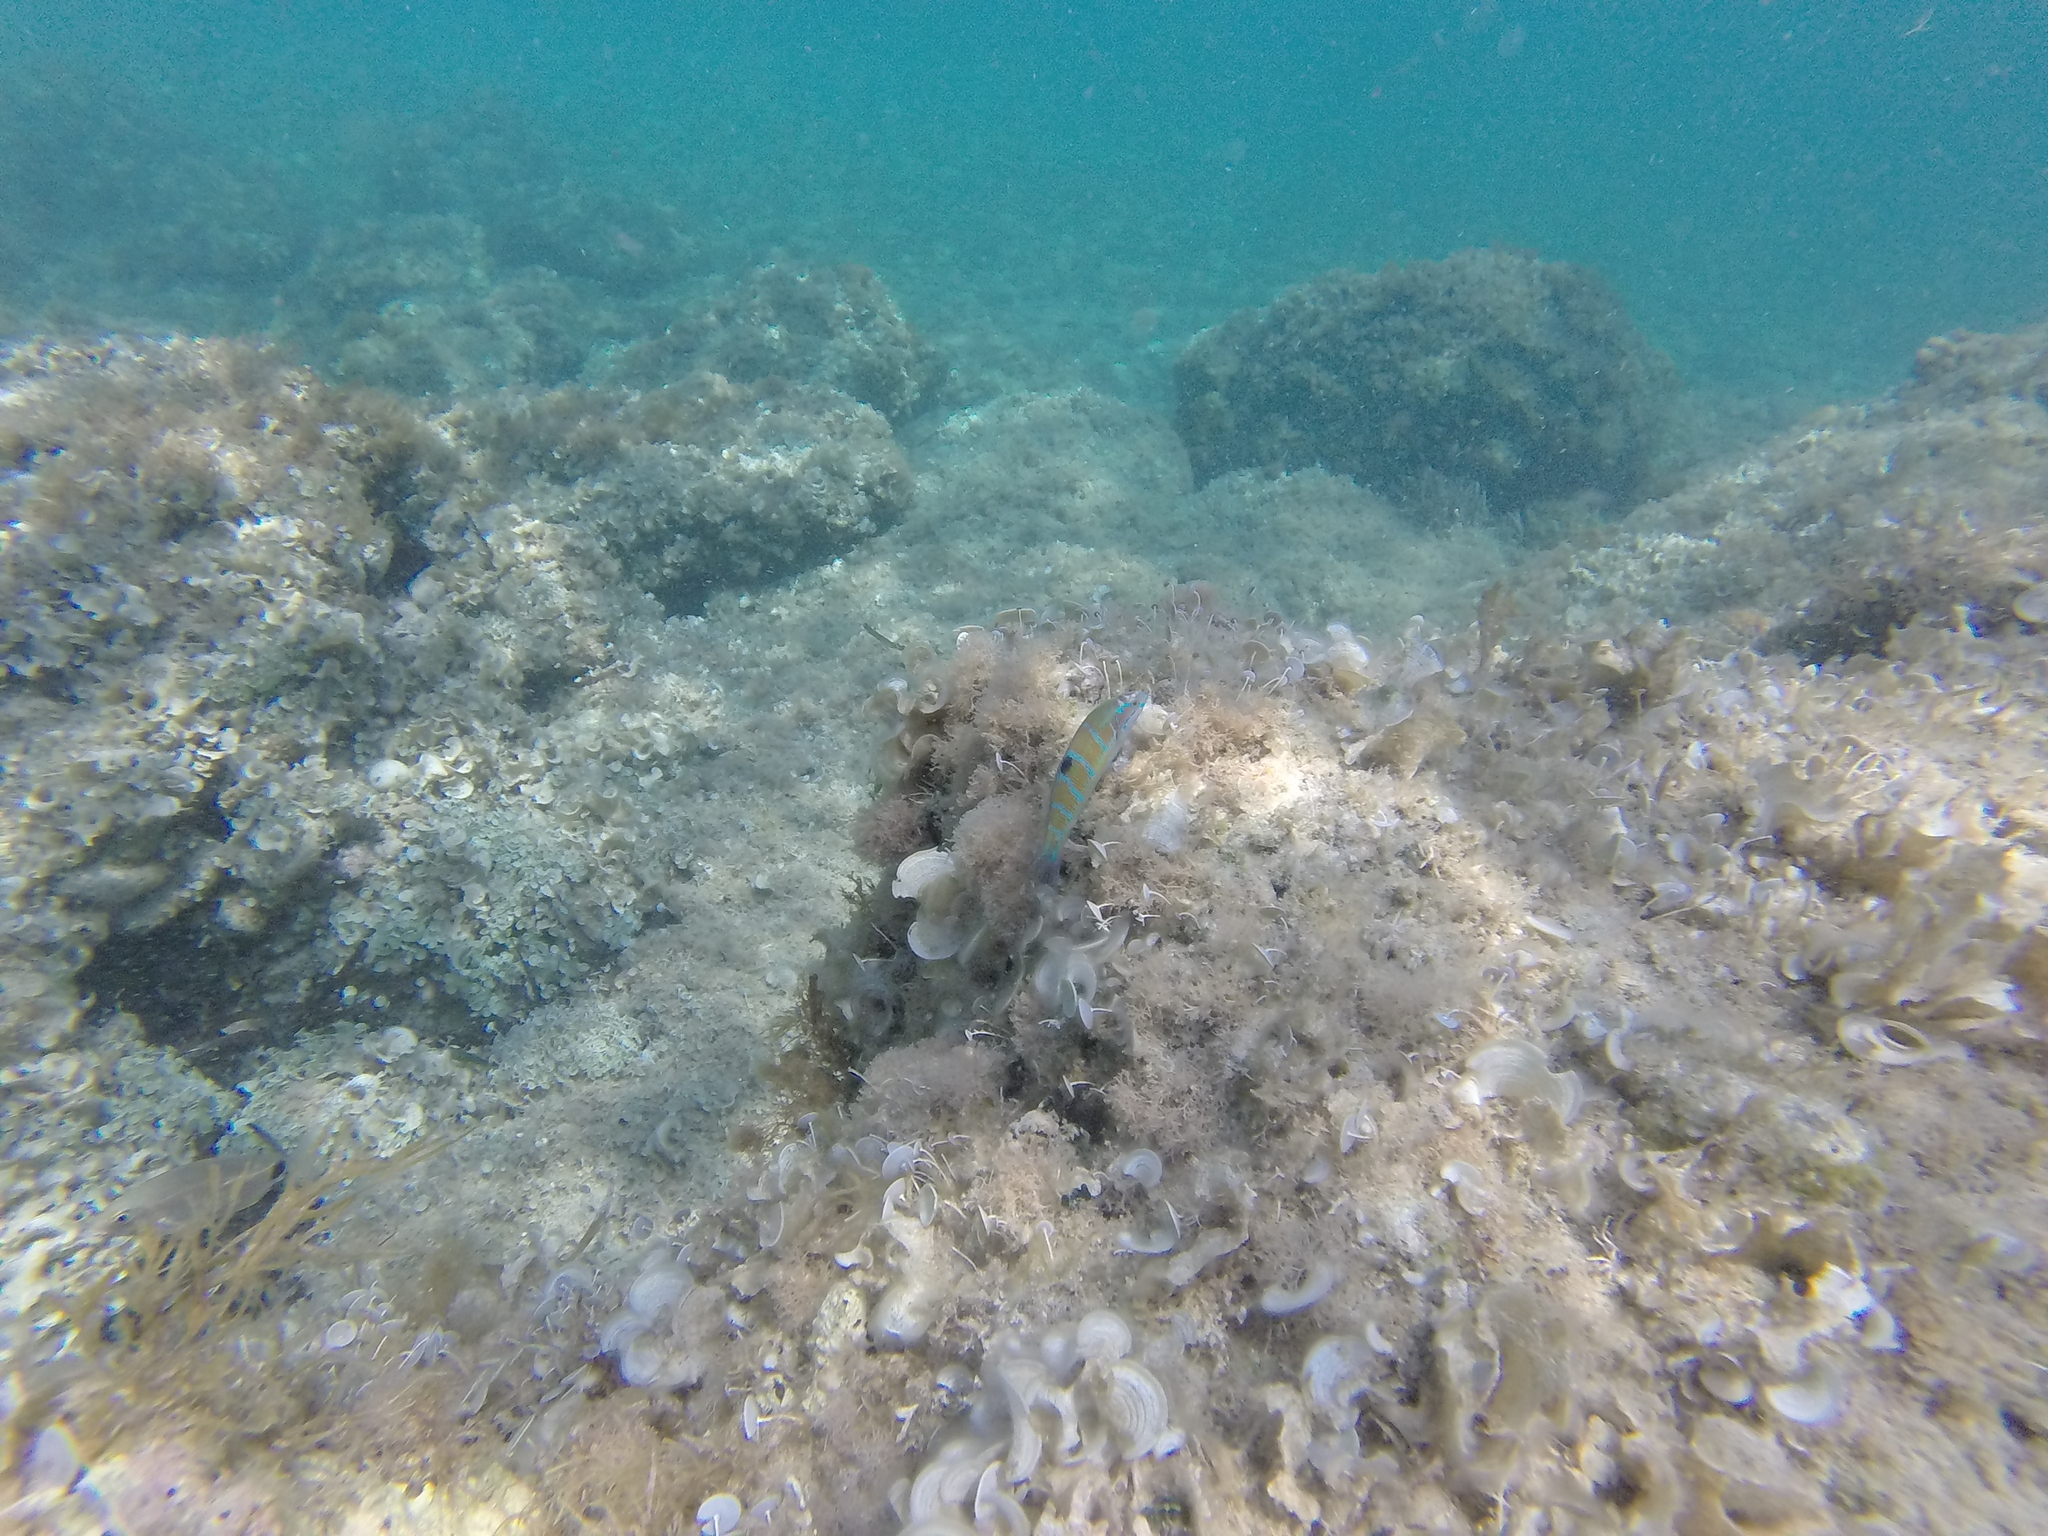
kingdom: Animalia
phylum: Chordata
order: Perciformes
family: Labridae
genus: Thalassoma
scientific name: Thalassoma pavo
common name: Ornate wrasse
